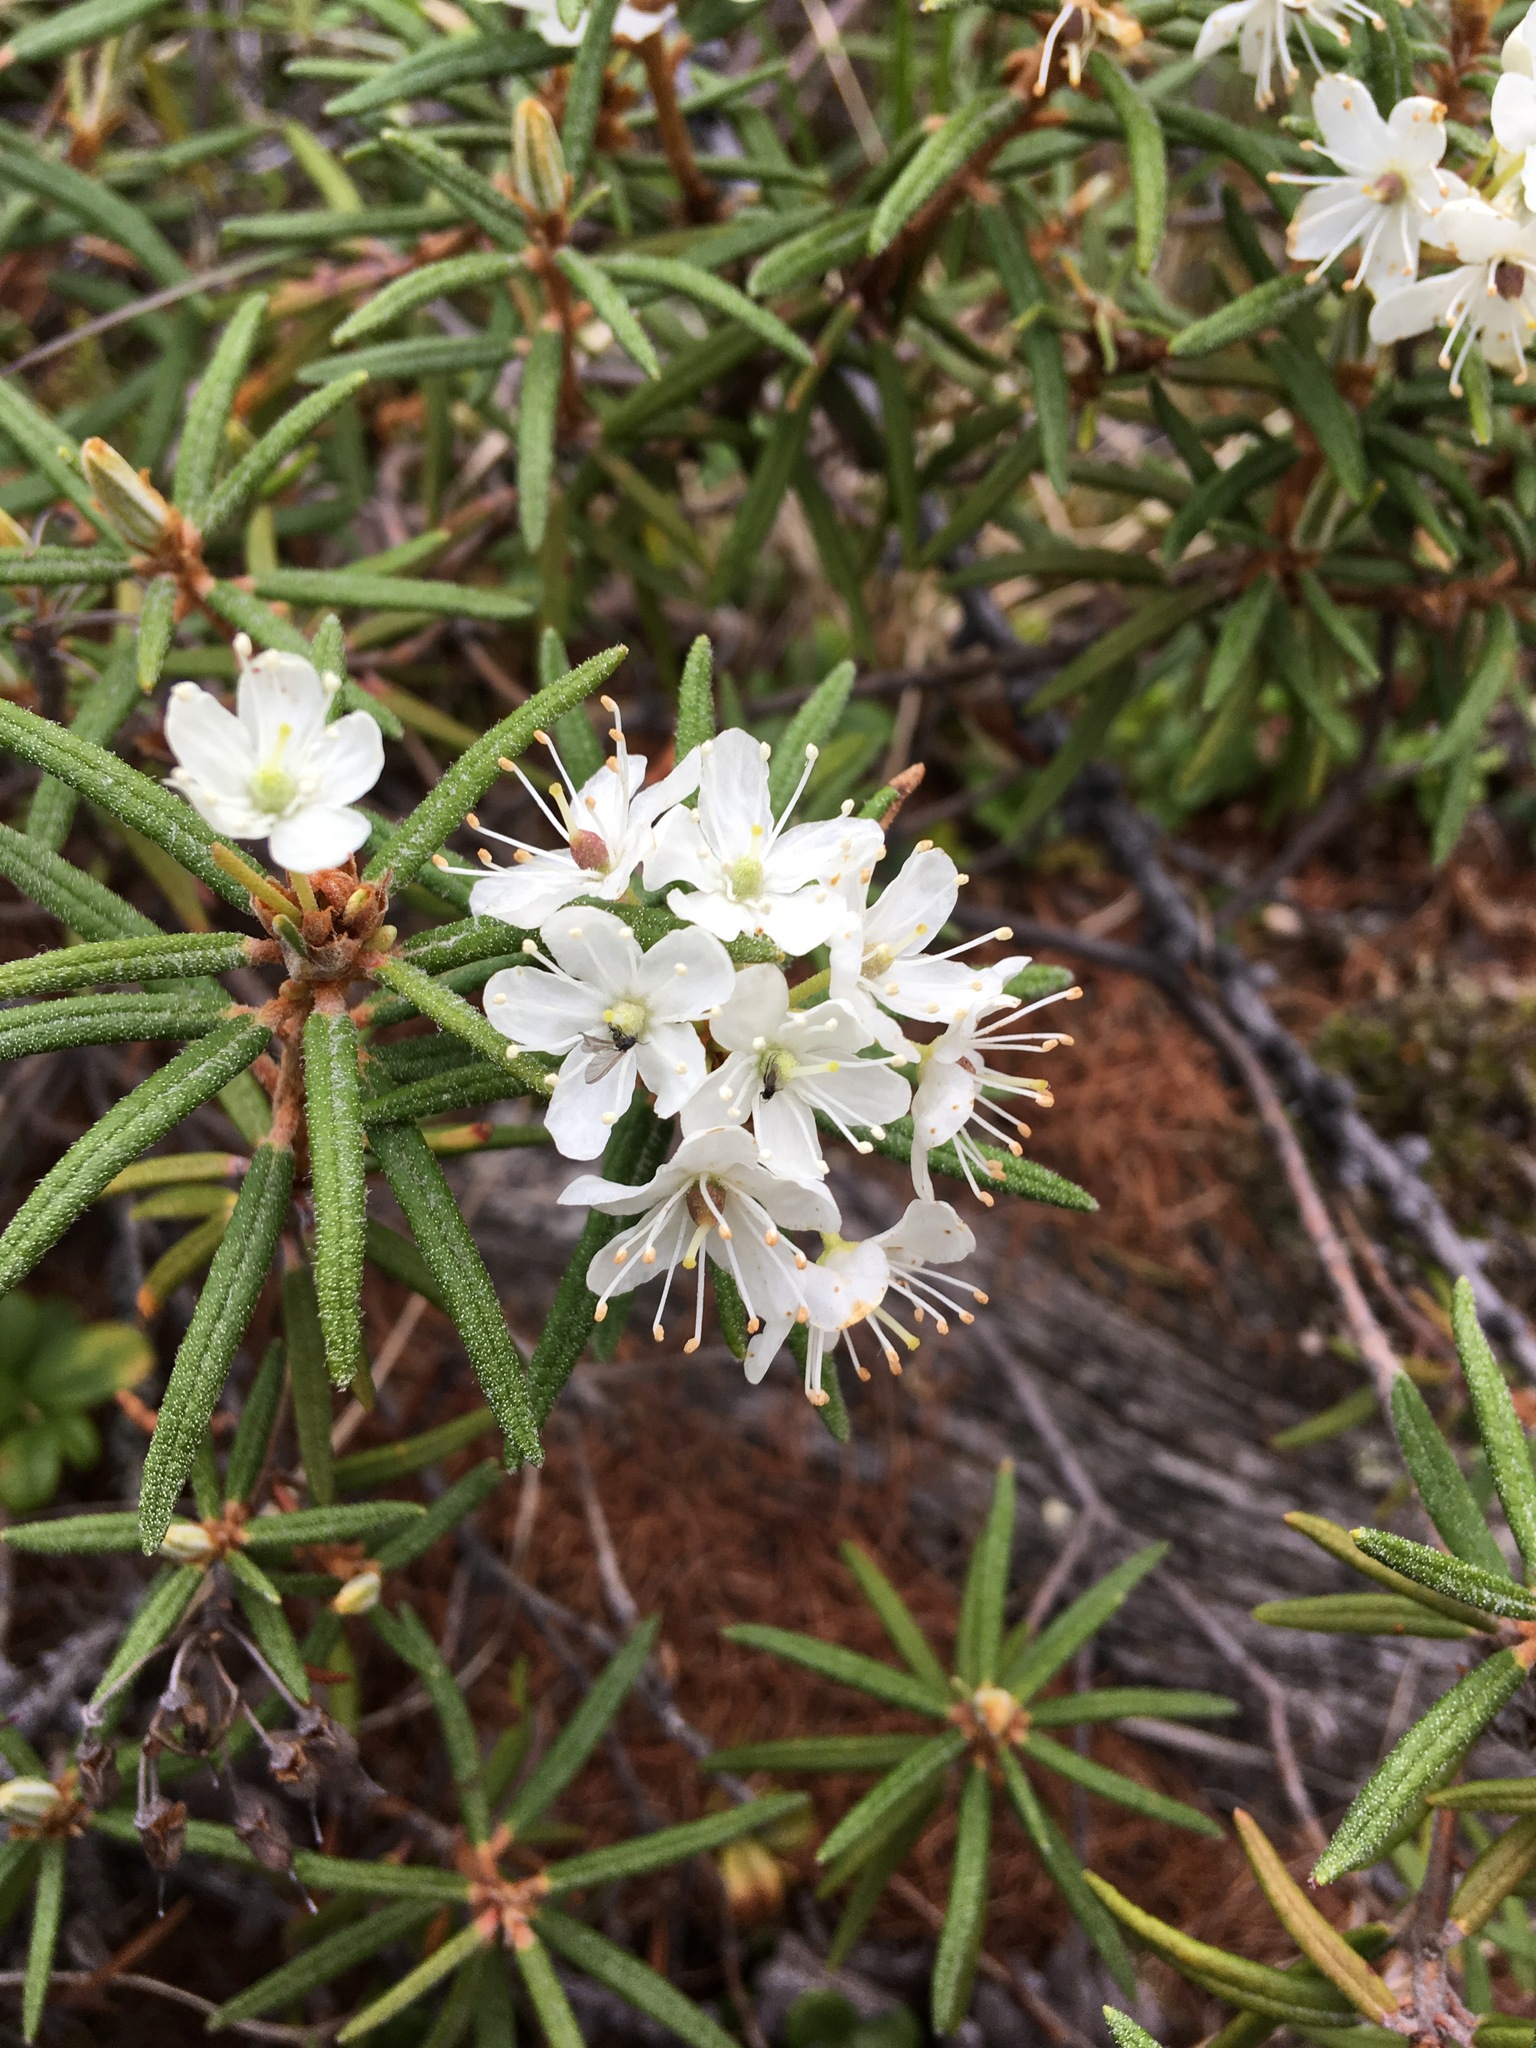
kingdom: Plantae
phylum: Tracheophyta
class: Magnoliopsida
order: Ericales
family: Ericaceae
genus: Rhododendron
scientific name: Rhododendron tomentosum
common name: Marsh labrador tea
